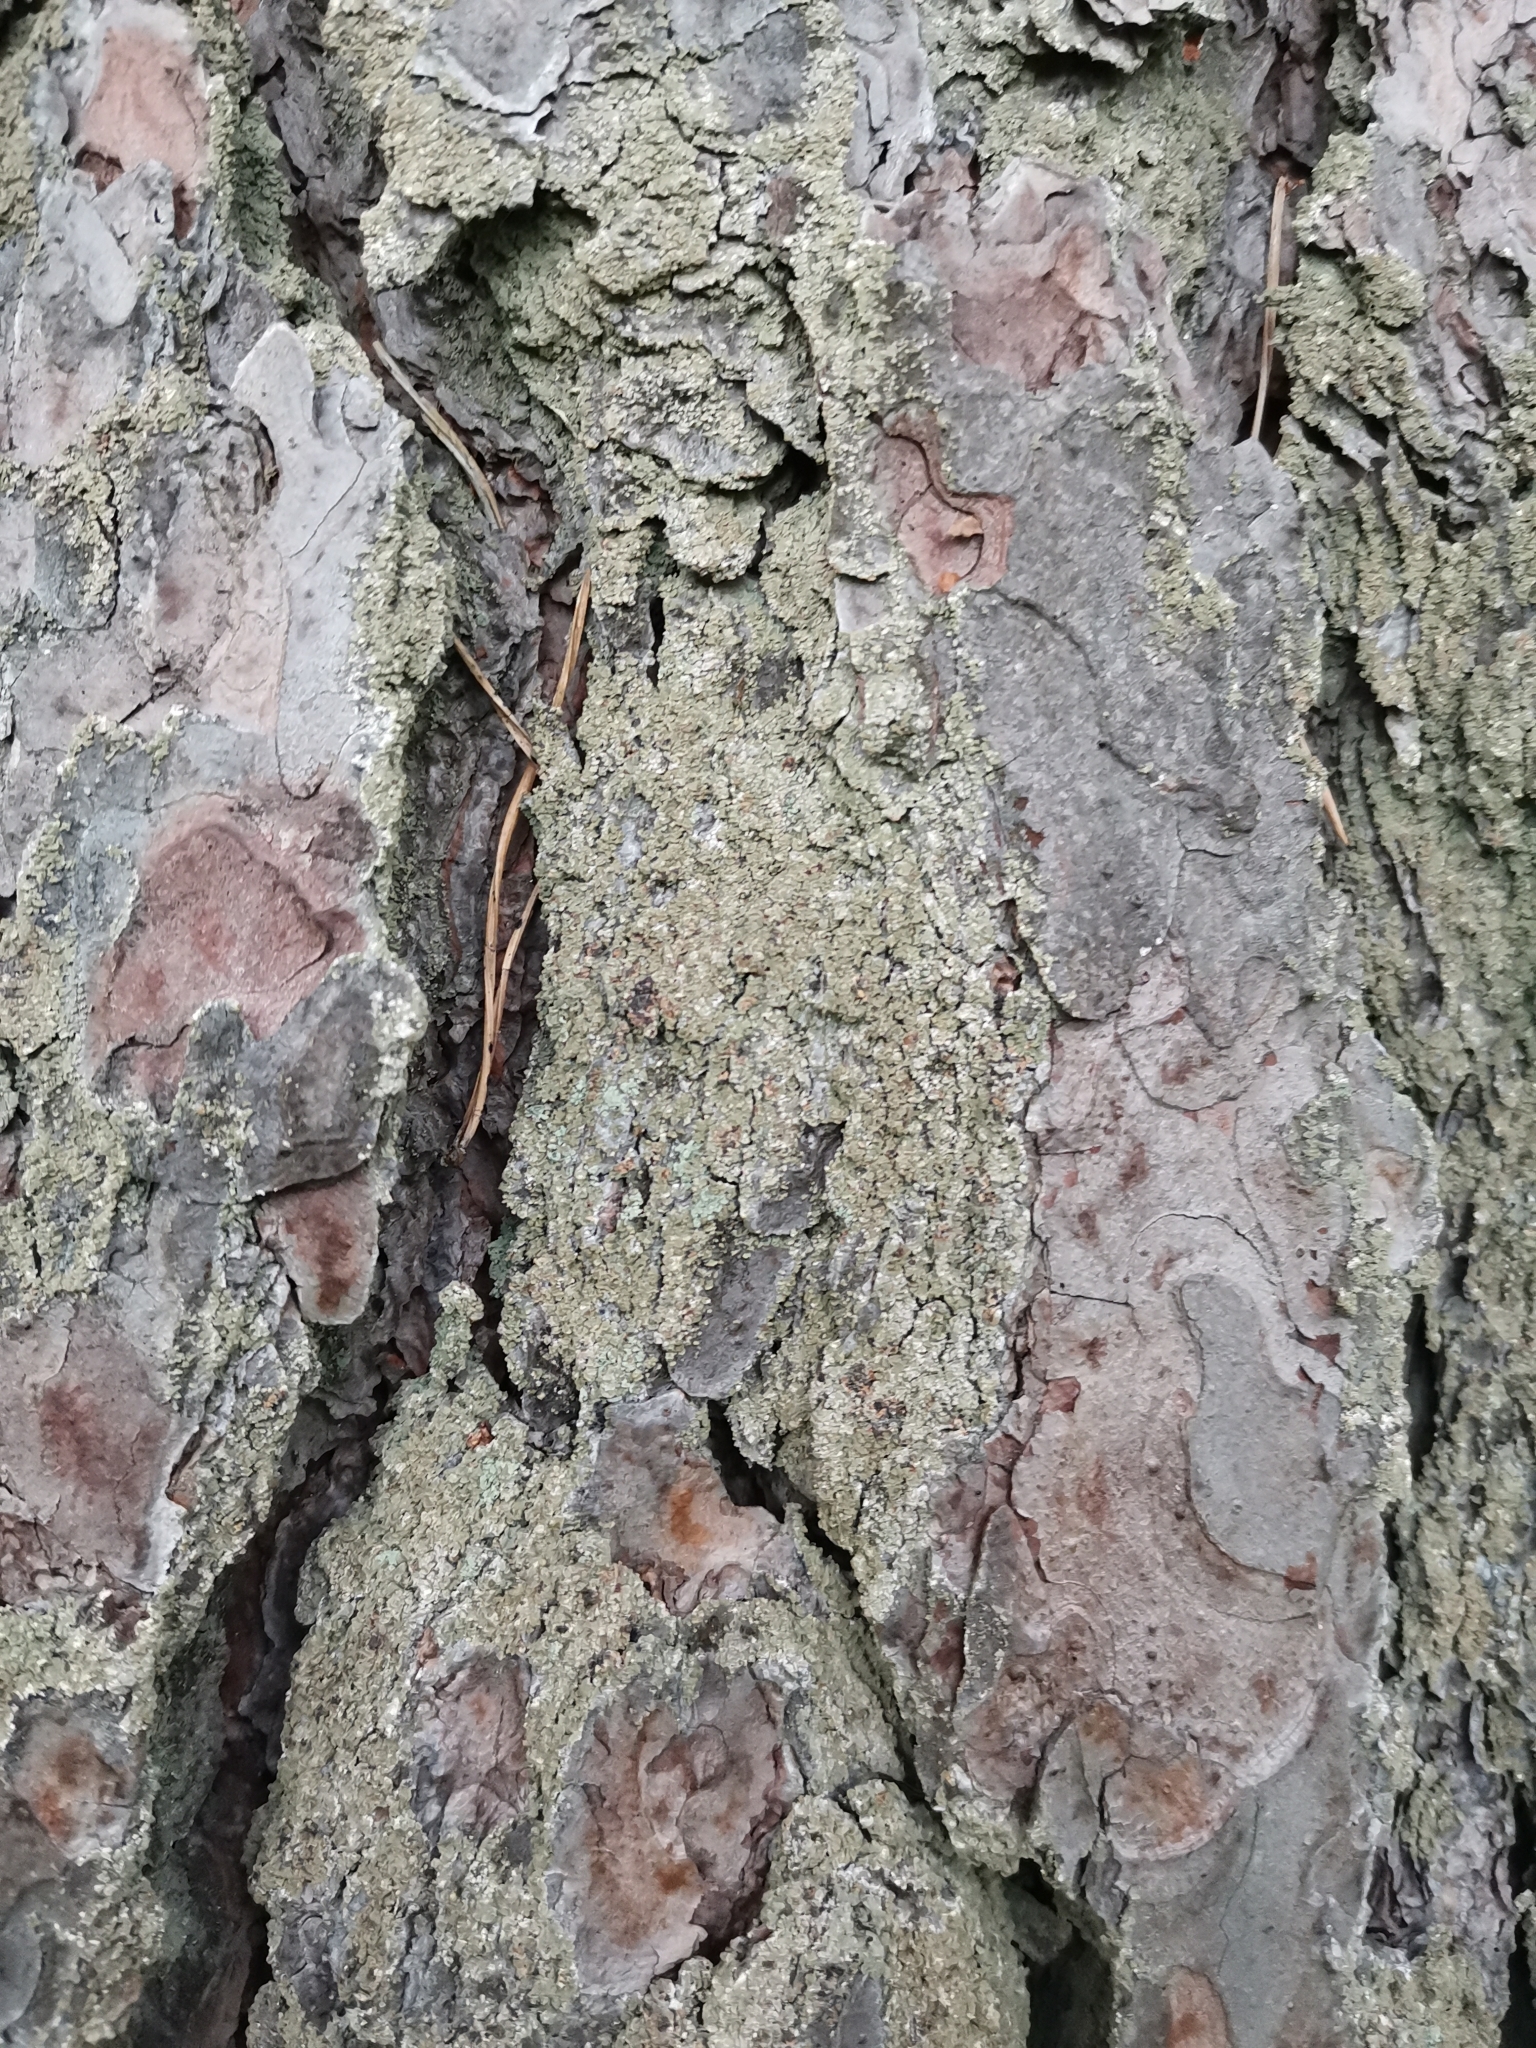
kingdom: Fungi
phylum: Ascomycota
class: Lecanoromycetes
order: Umbilicariales
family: Ophioparmaceae
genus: Hypocenomyce
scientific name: Hypocenomyce scalaris
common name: Common clam lichen
